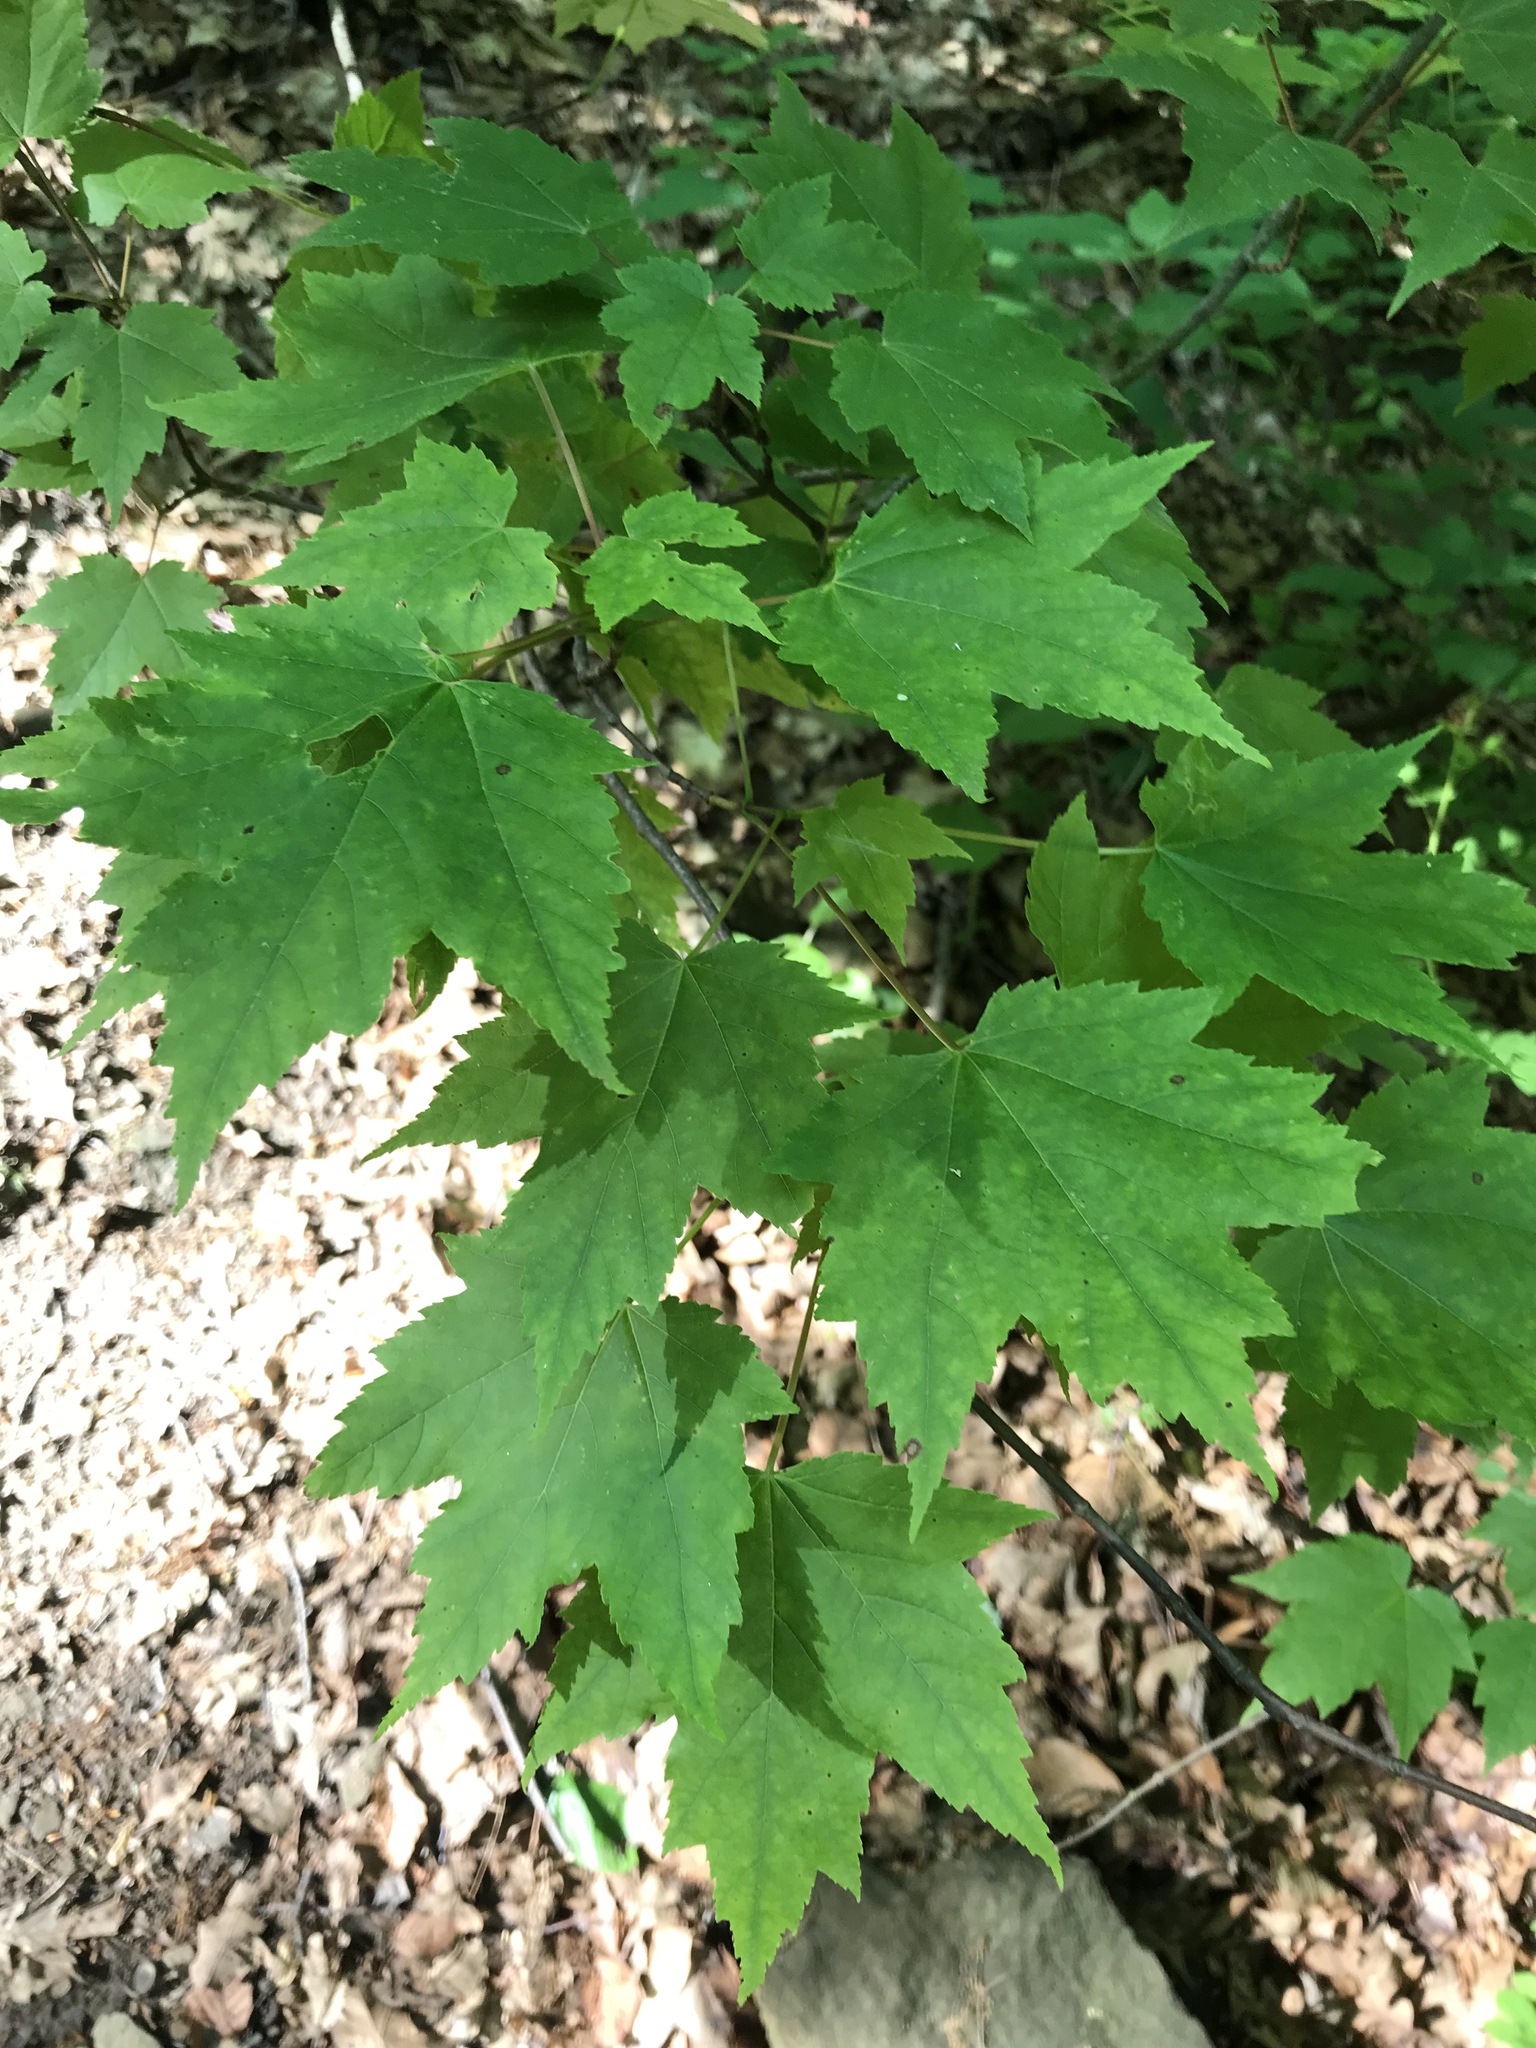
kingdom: Plantae
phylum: Tracheophyta
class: Magnoliopsida
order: Sapindales
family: Sapindaceae
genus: Acer
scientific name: Acer rubrum
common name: Red maple
